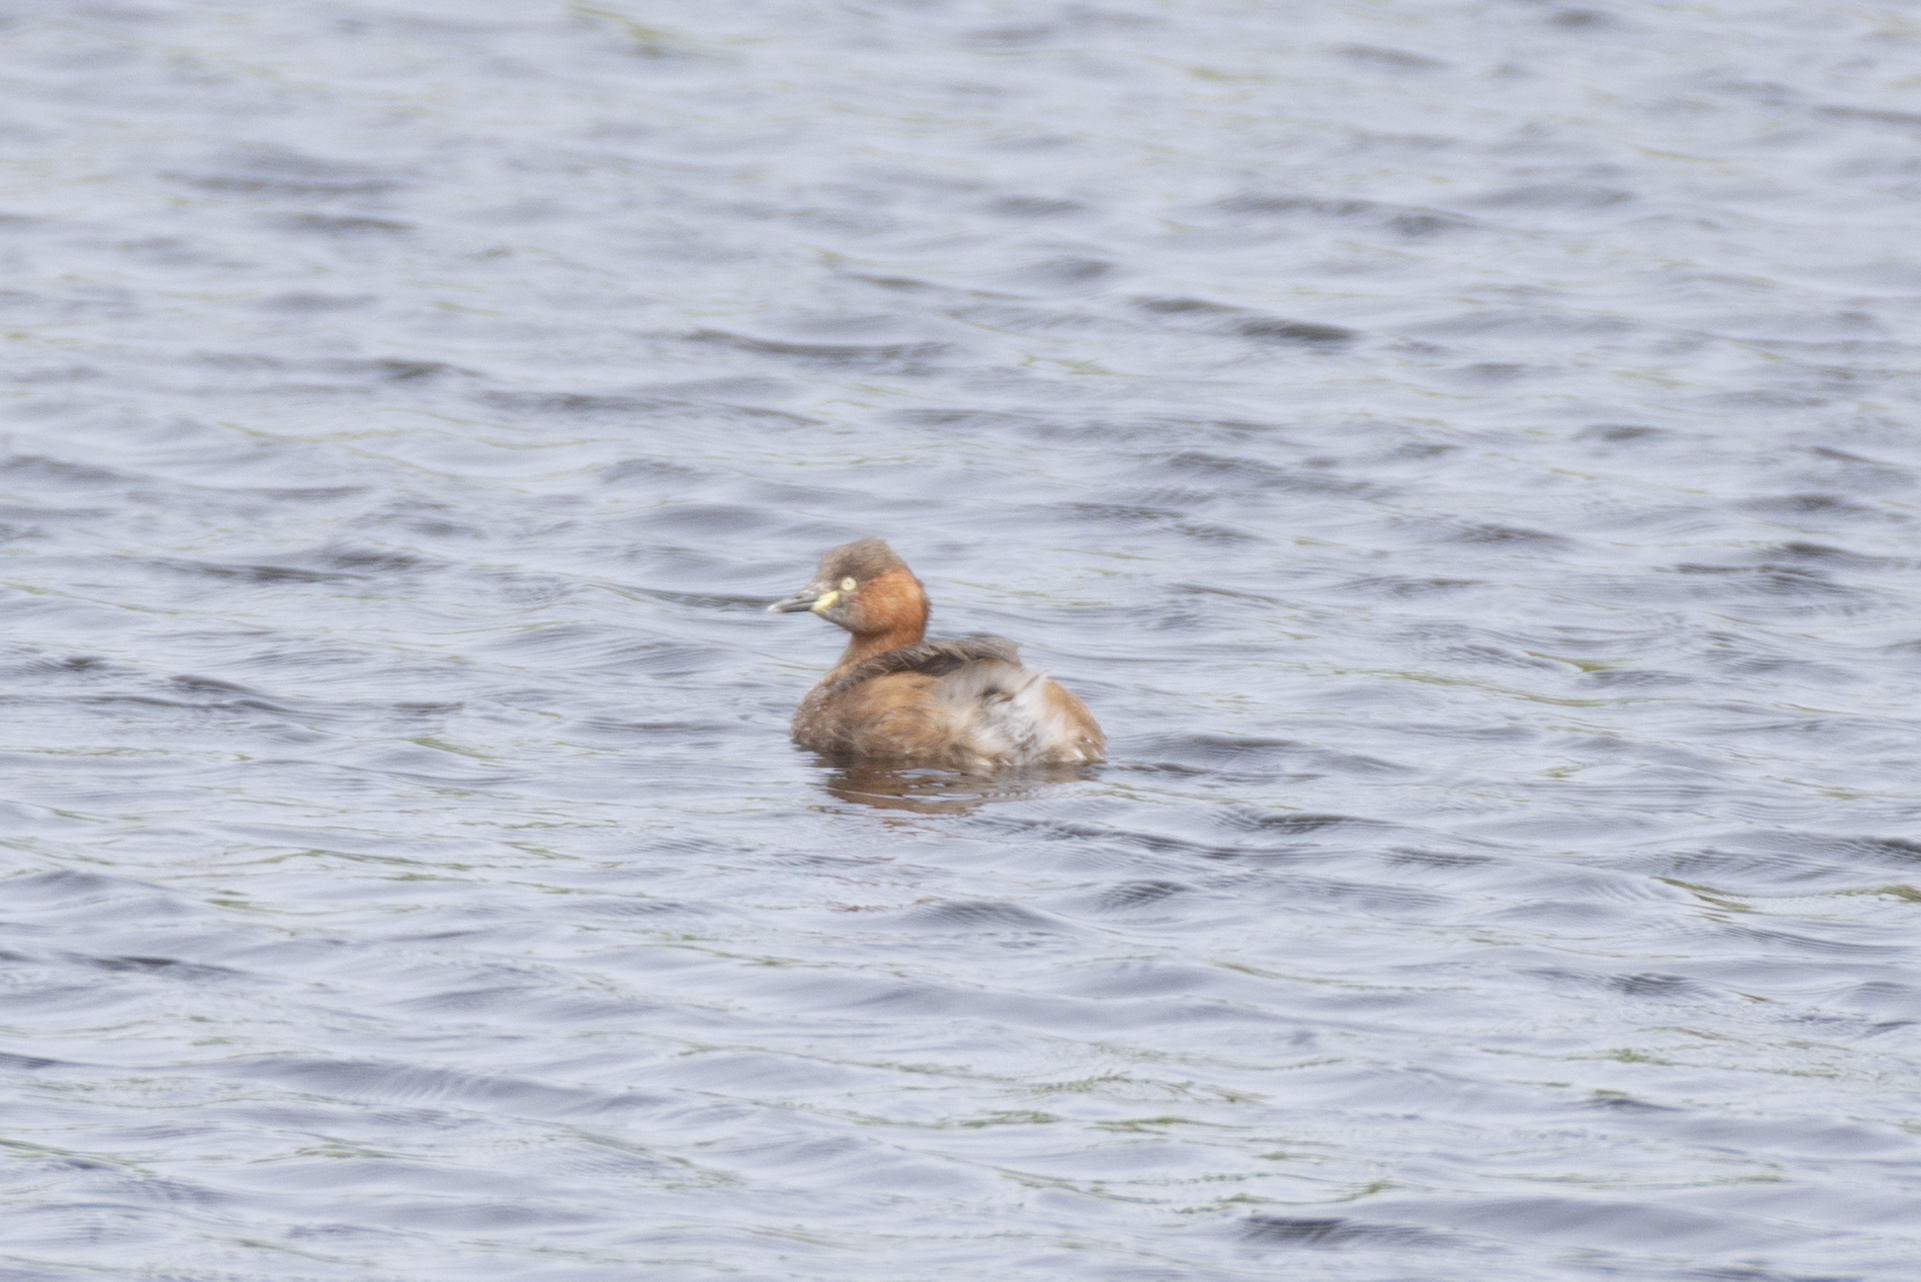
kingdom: Animalia
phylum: Chordata
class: Aves
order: Podicipediformes
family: Podicipedidae
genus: Tachybaptus
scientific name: Tachybaptus ruficollis
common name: Little grebe
